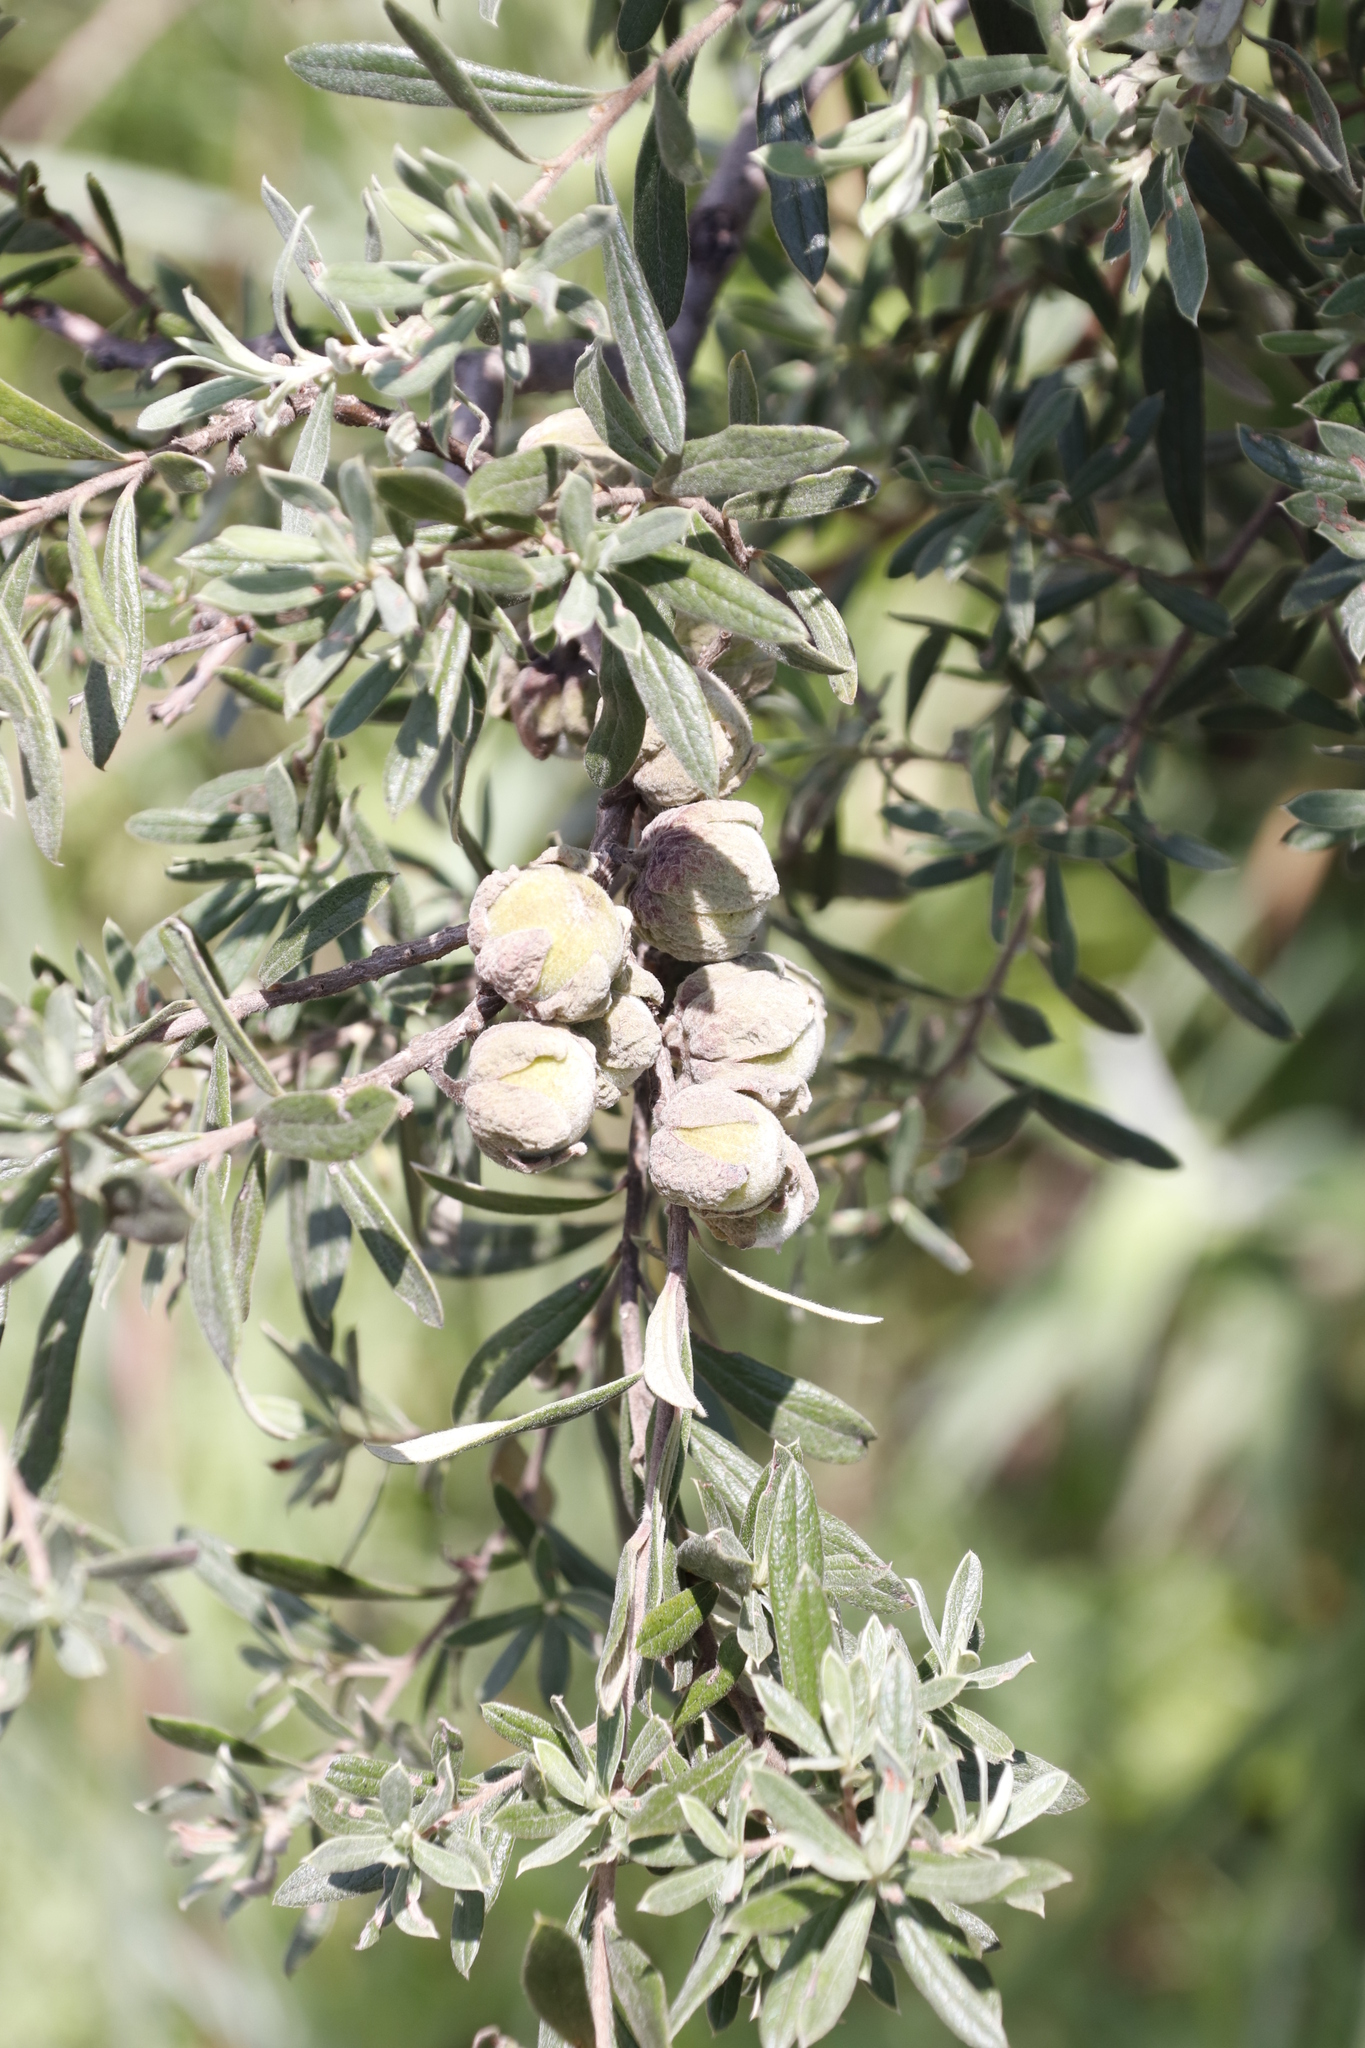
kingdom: Plantae
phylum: Tracheophyta
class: Magnoliopsida
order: Ericales
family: Ebenaceae
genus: Diospyros
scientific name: Diospyros pubescens
